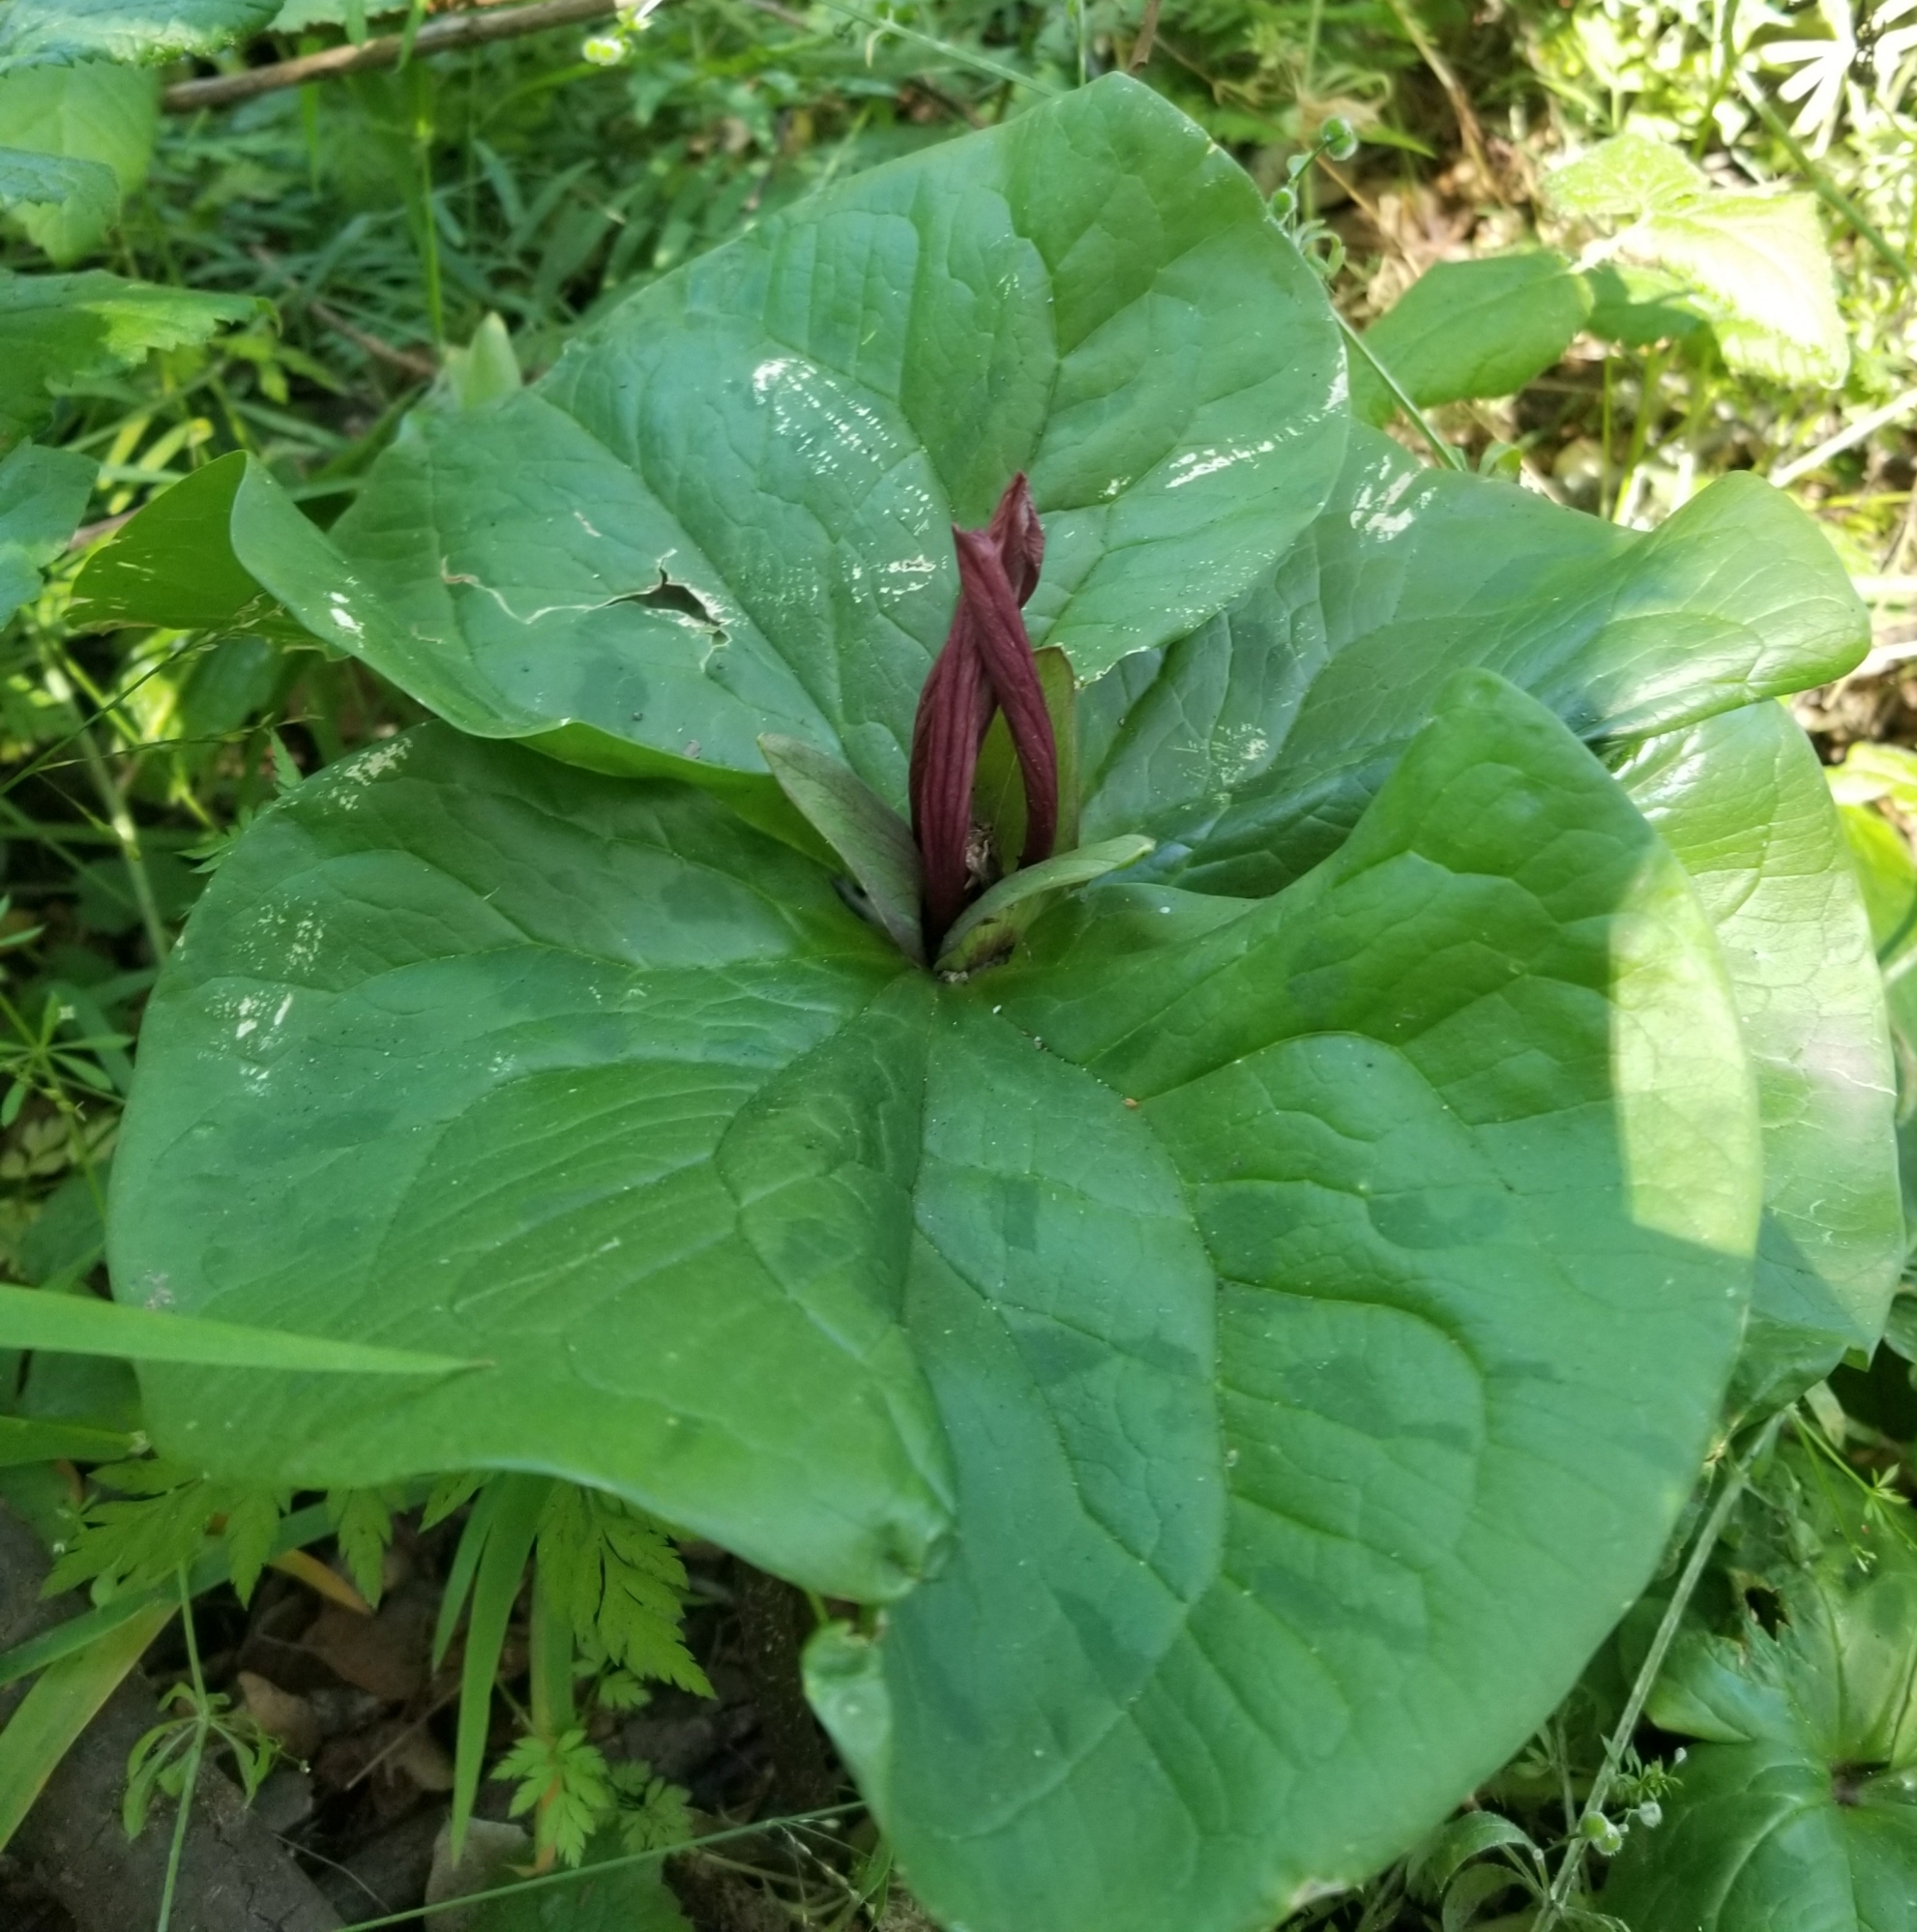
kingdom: Plantae
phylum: Tracheophyta
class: Liliopsida
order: Liliales
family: Melanthiaceae
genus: Trillium
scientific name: Trillium chloropetalum
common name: Giant trillium
